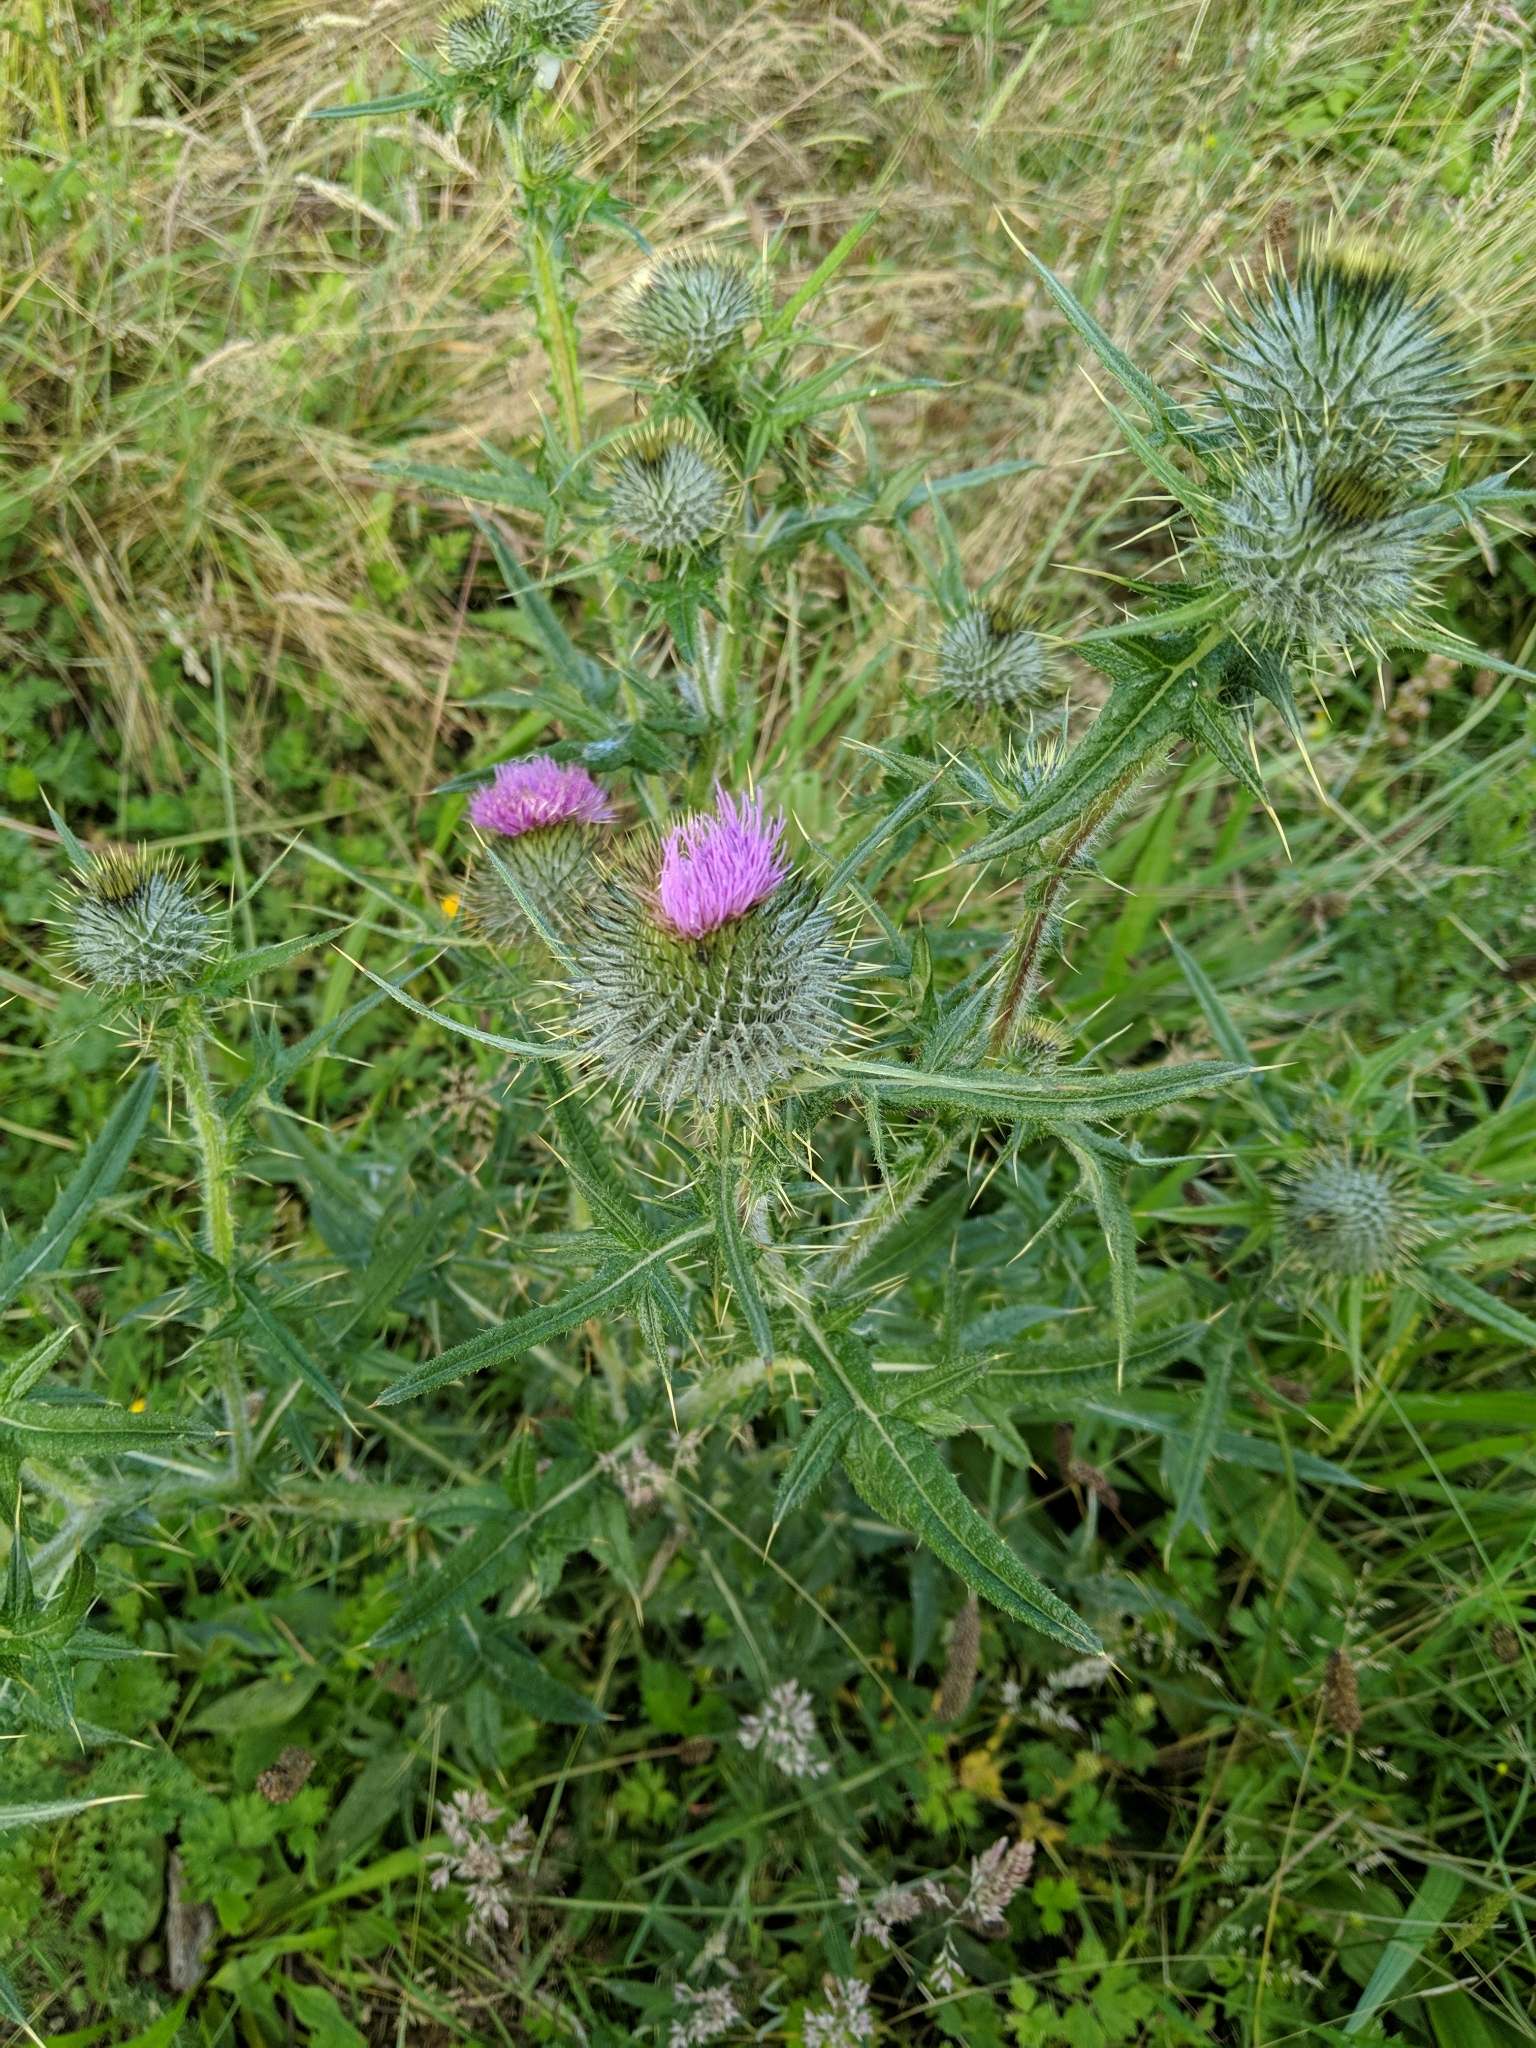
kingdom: Plantae
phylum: Tracheophyta
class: Magnoliopsida
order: Asterales
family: Asteraceae
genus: Cirsium
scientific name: Cirsium vulgare
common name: Bull thistle
